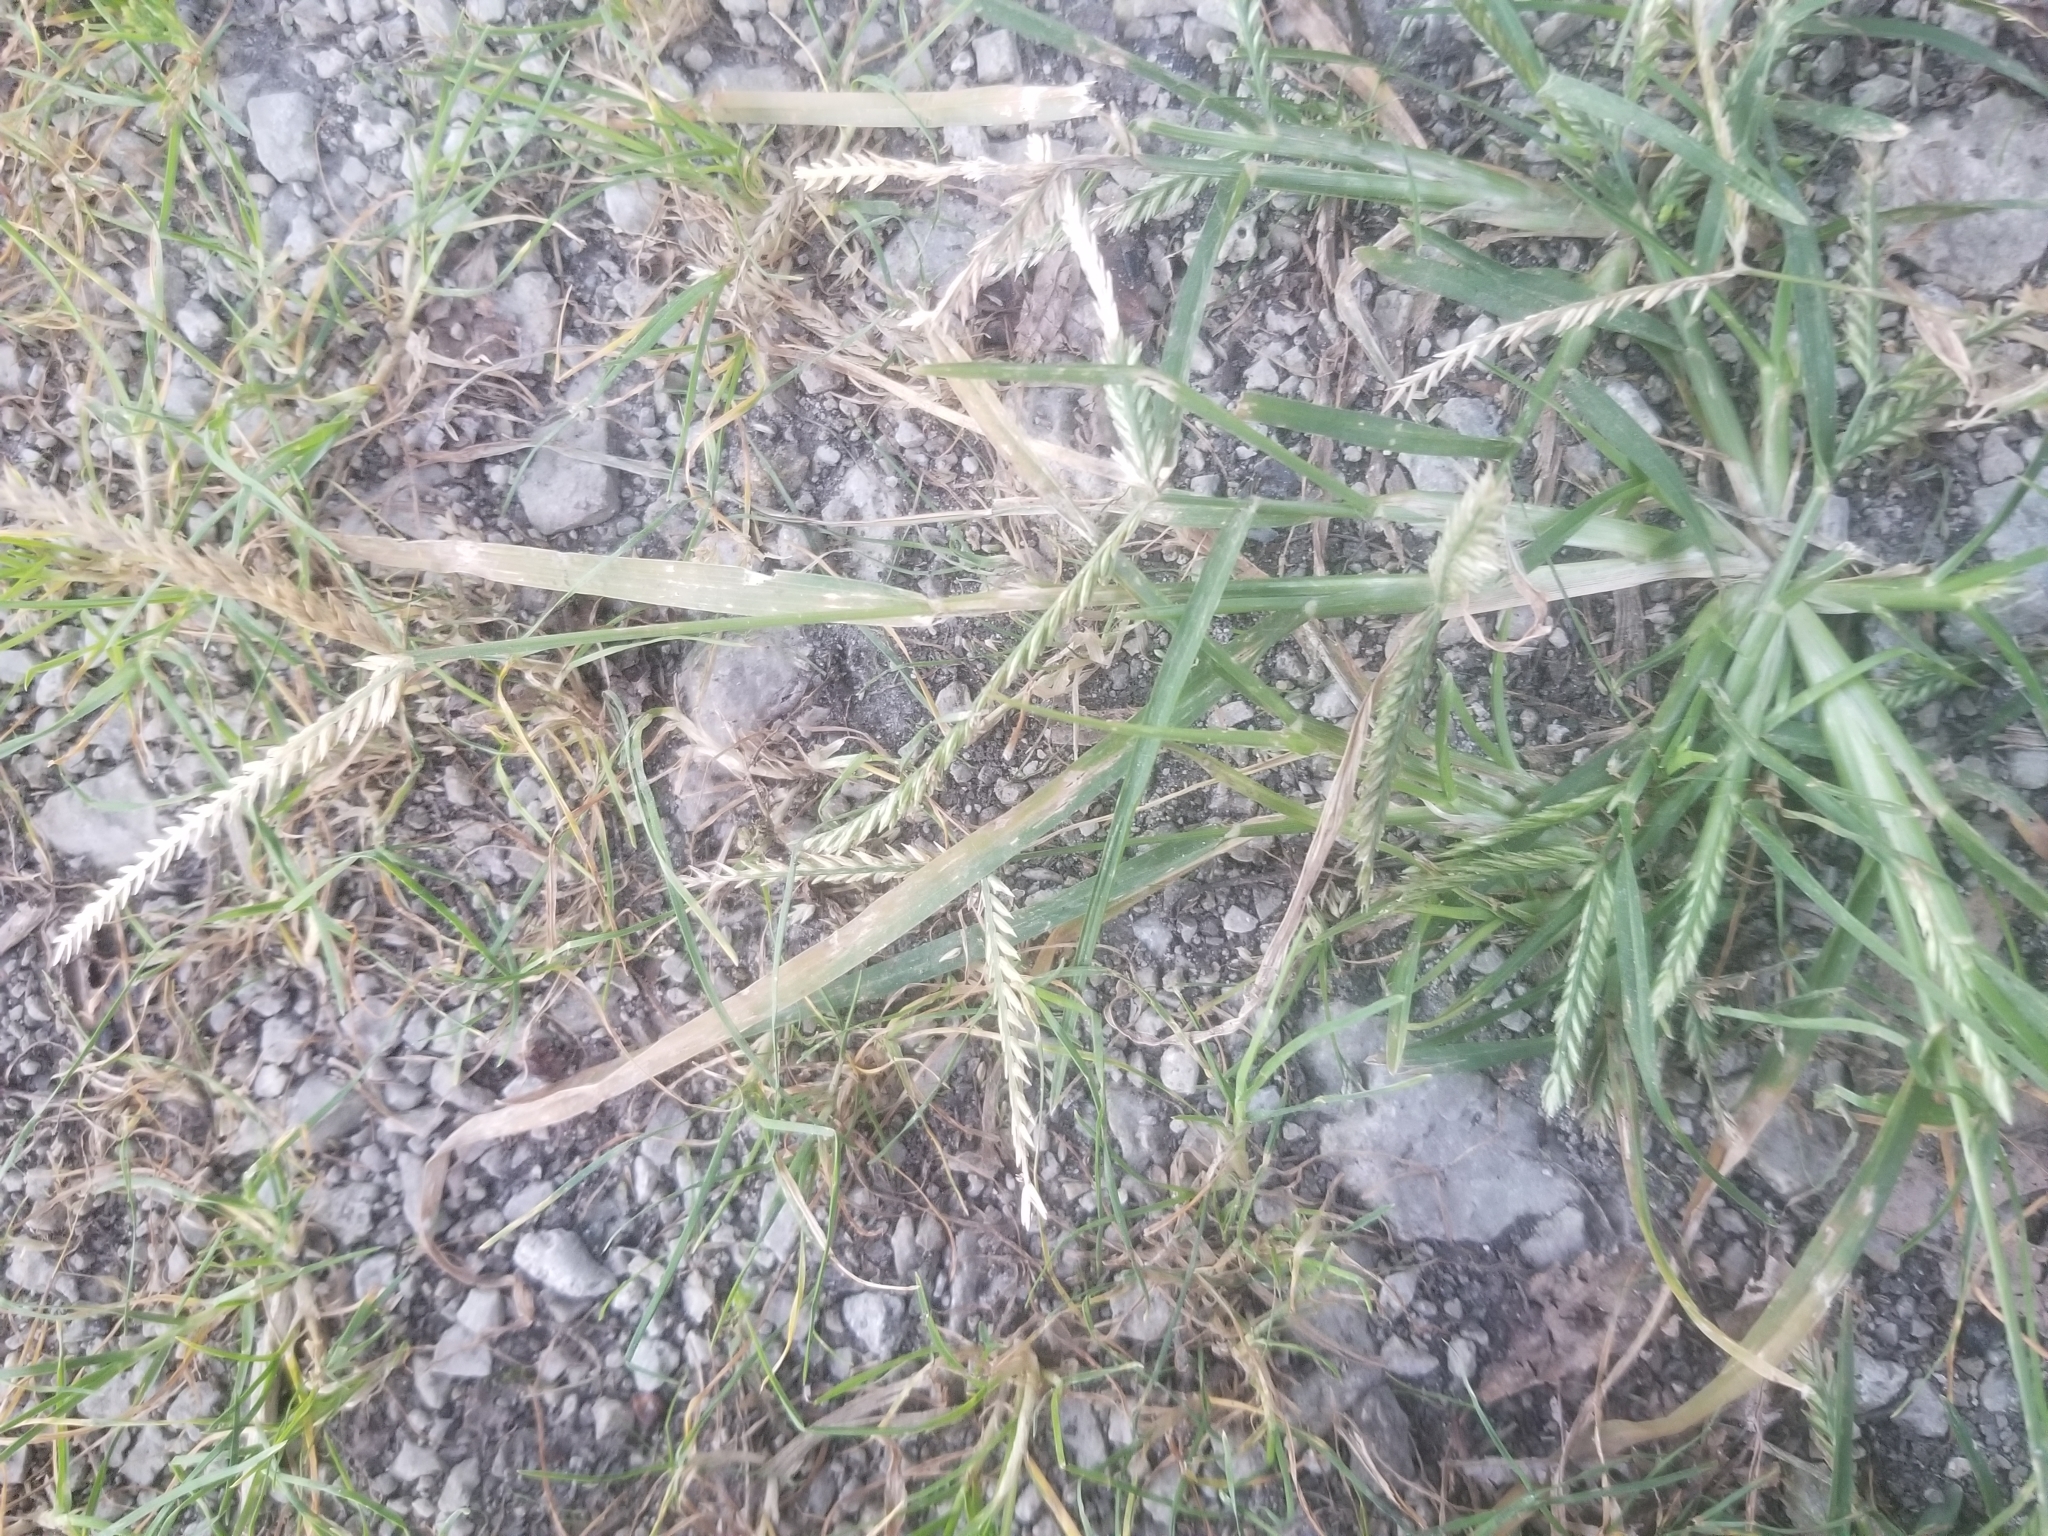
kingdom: Plantae
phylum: Tracheophyta
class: Liliopsida
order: Poales
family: Poaceae
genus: Eleusine
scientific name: Eleusine indica
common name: Yard-grass
